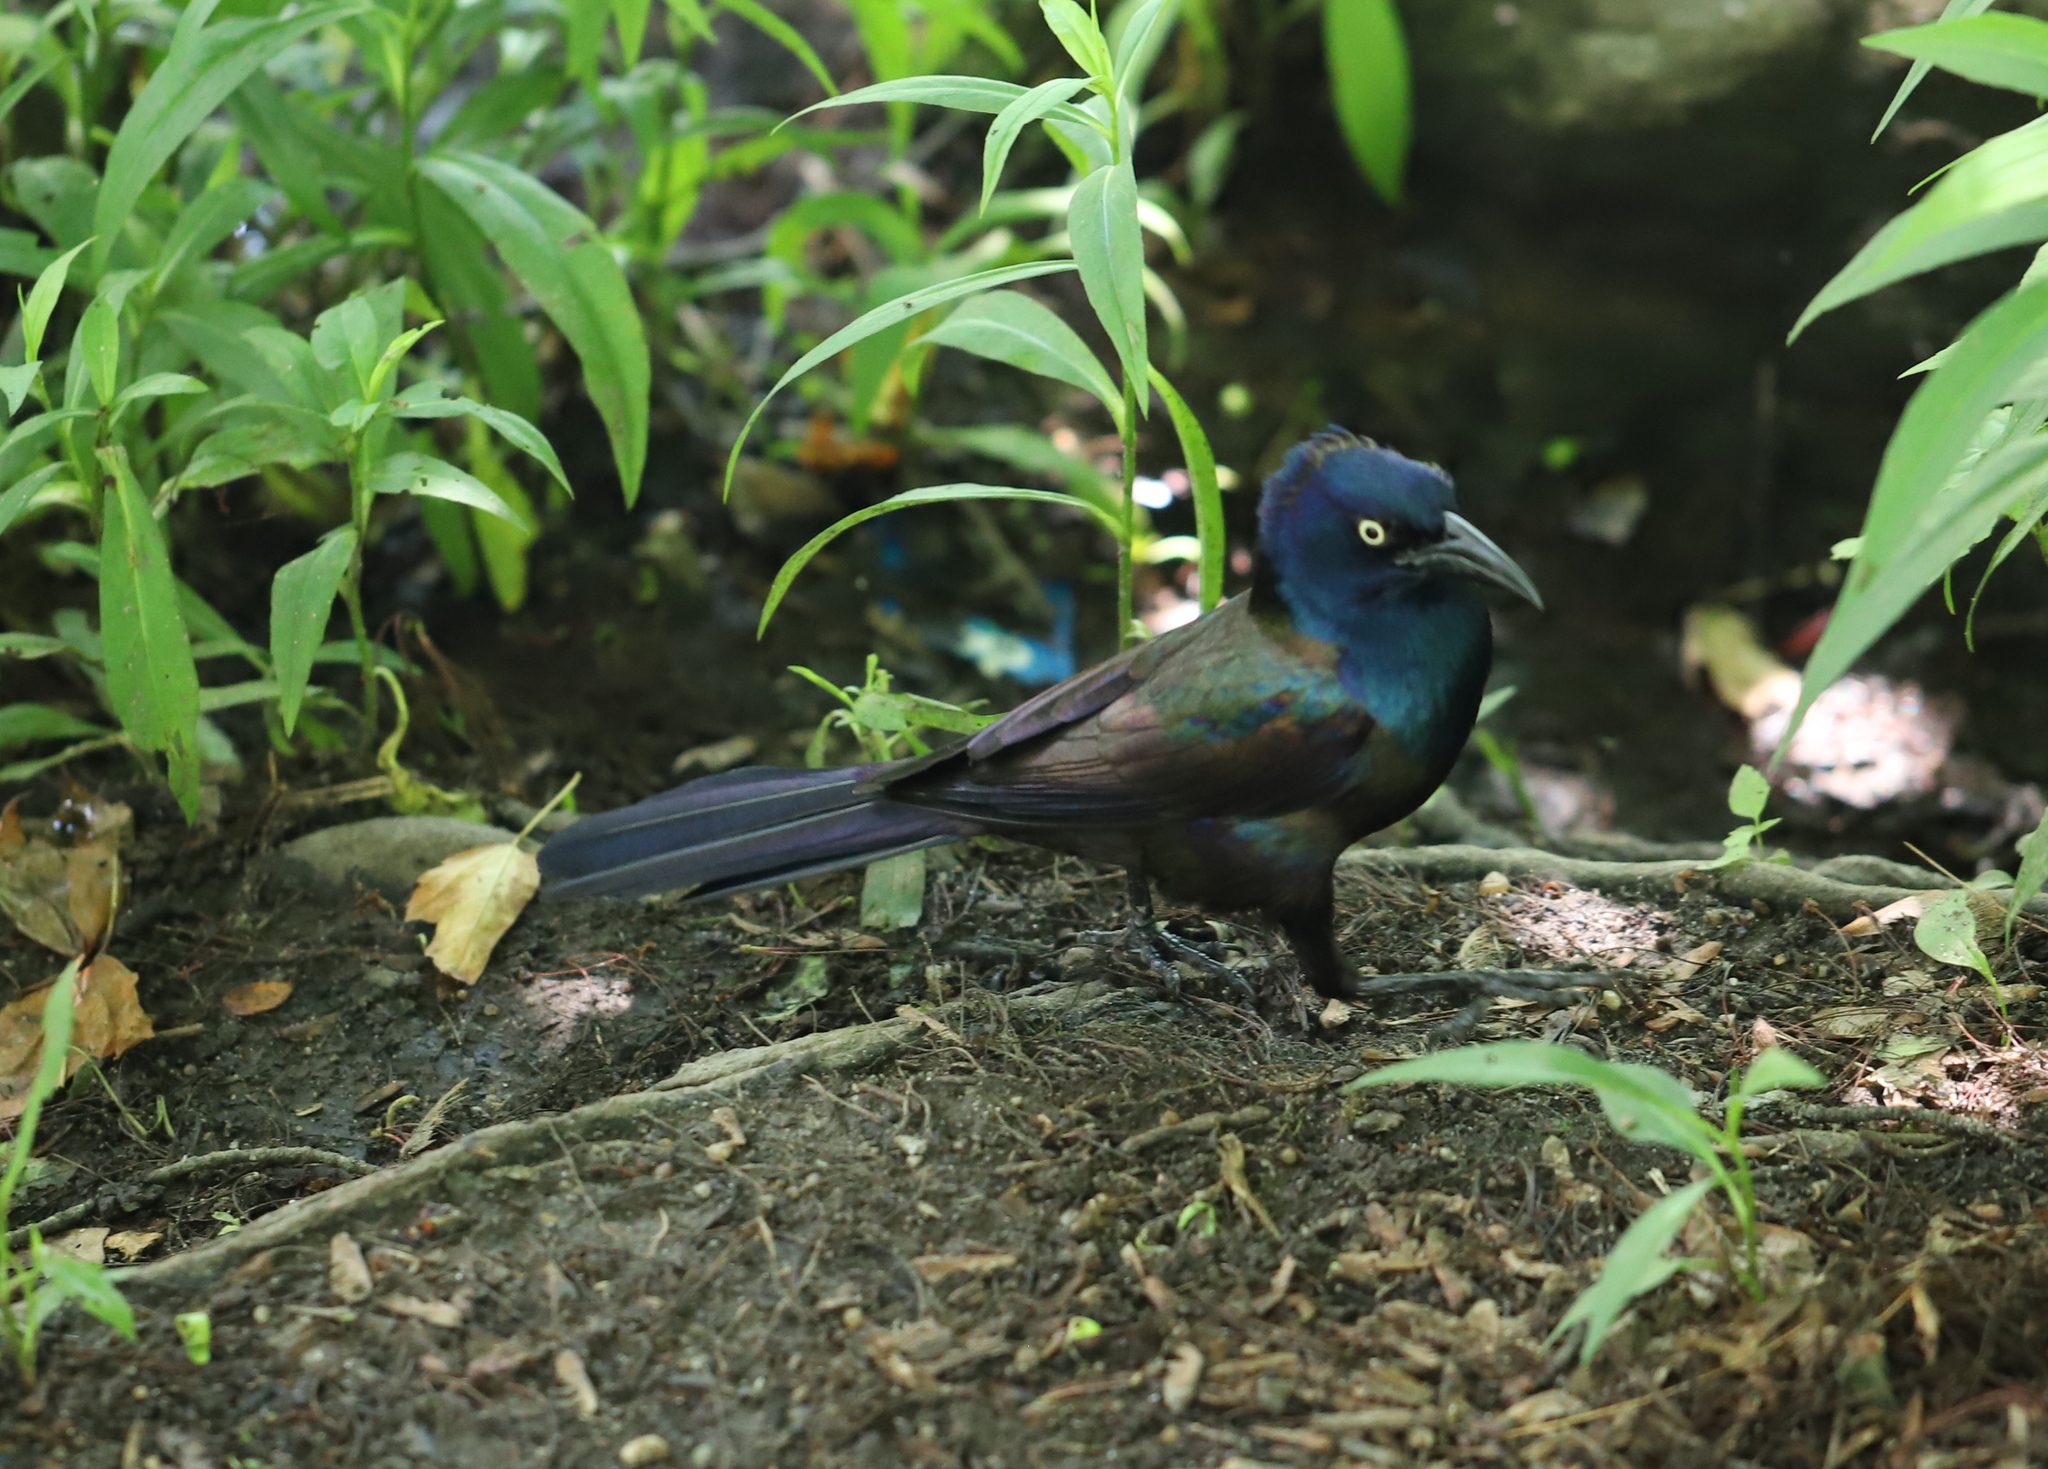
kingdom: Animalia
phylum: Chordata
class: Aves
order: Passeriformes
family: Icteridae
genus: Quiscalus
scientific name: Quiscalus quiscula
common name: Common grackle
